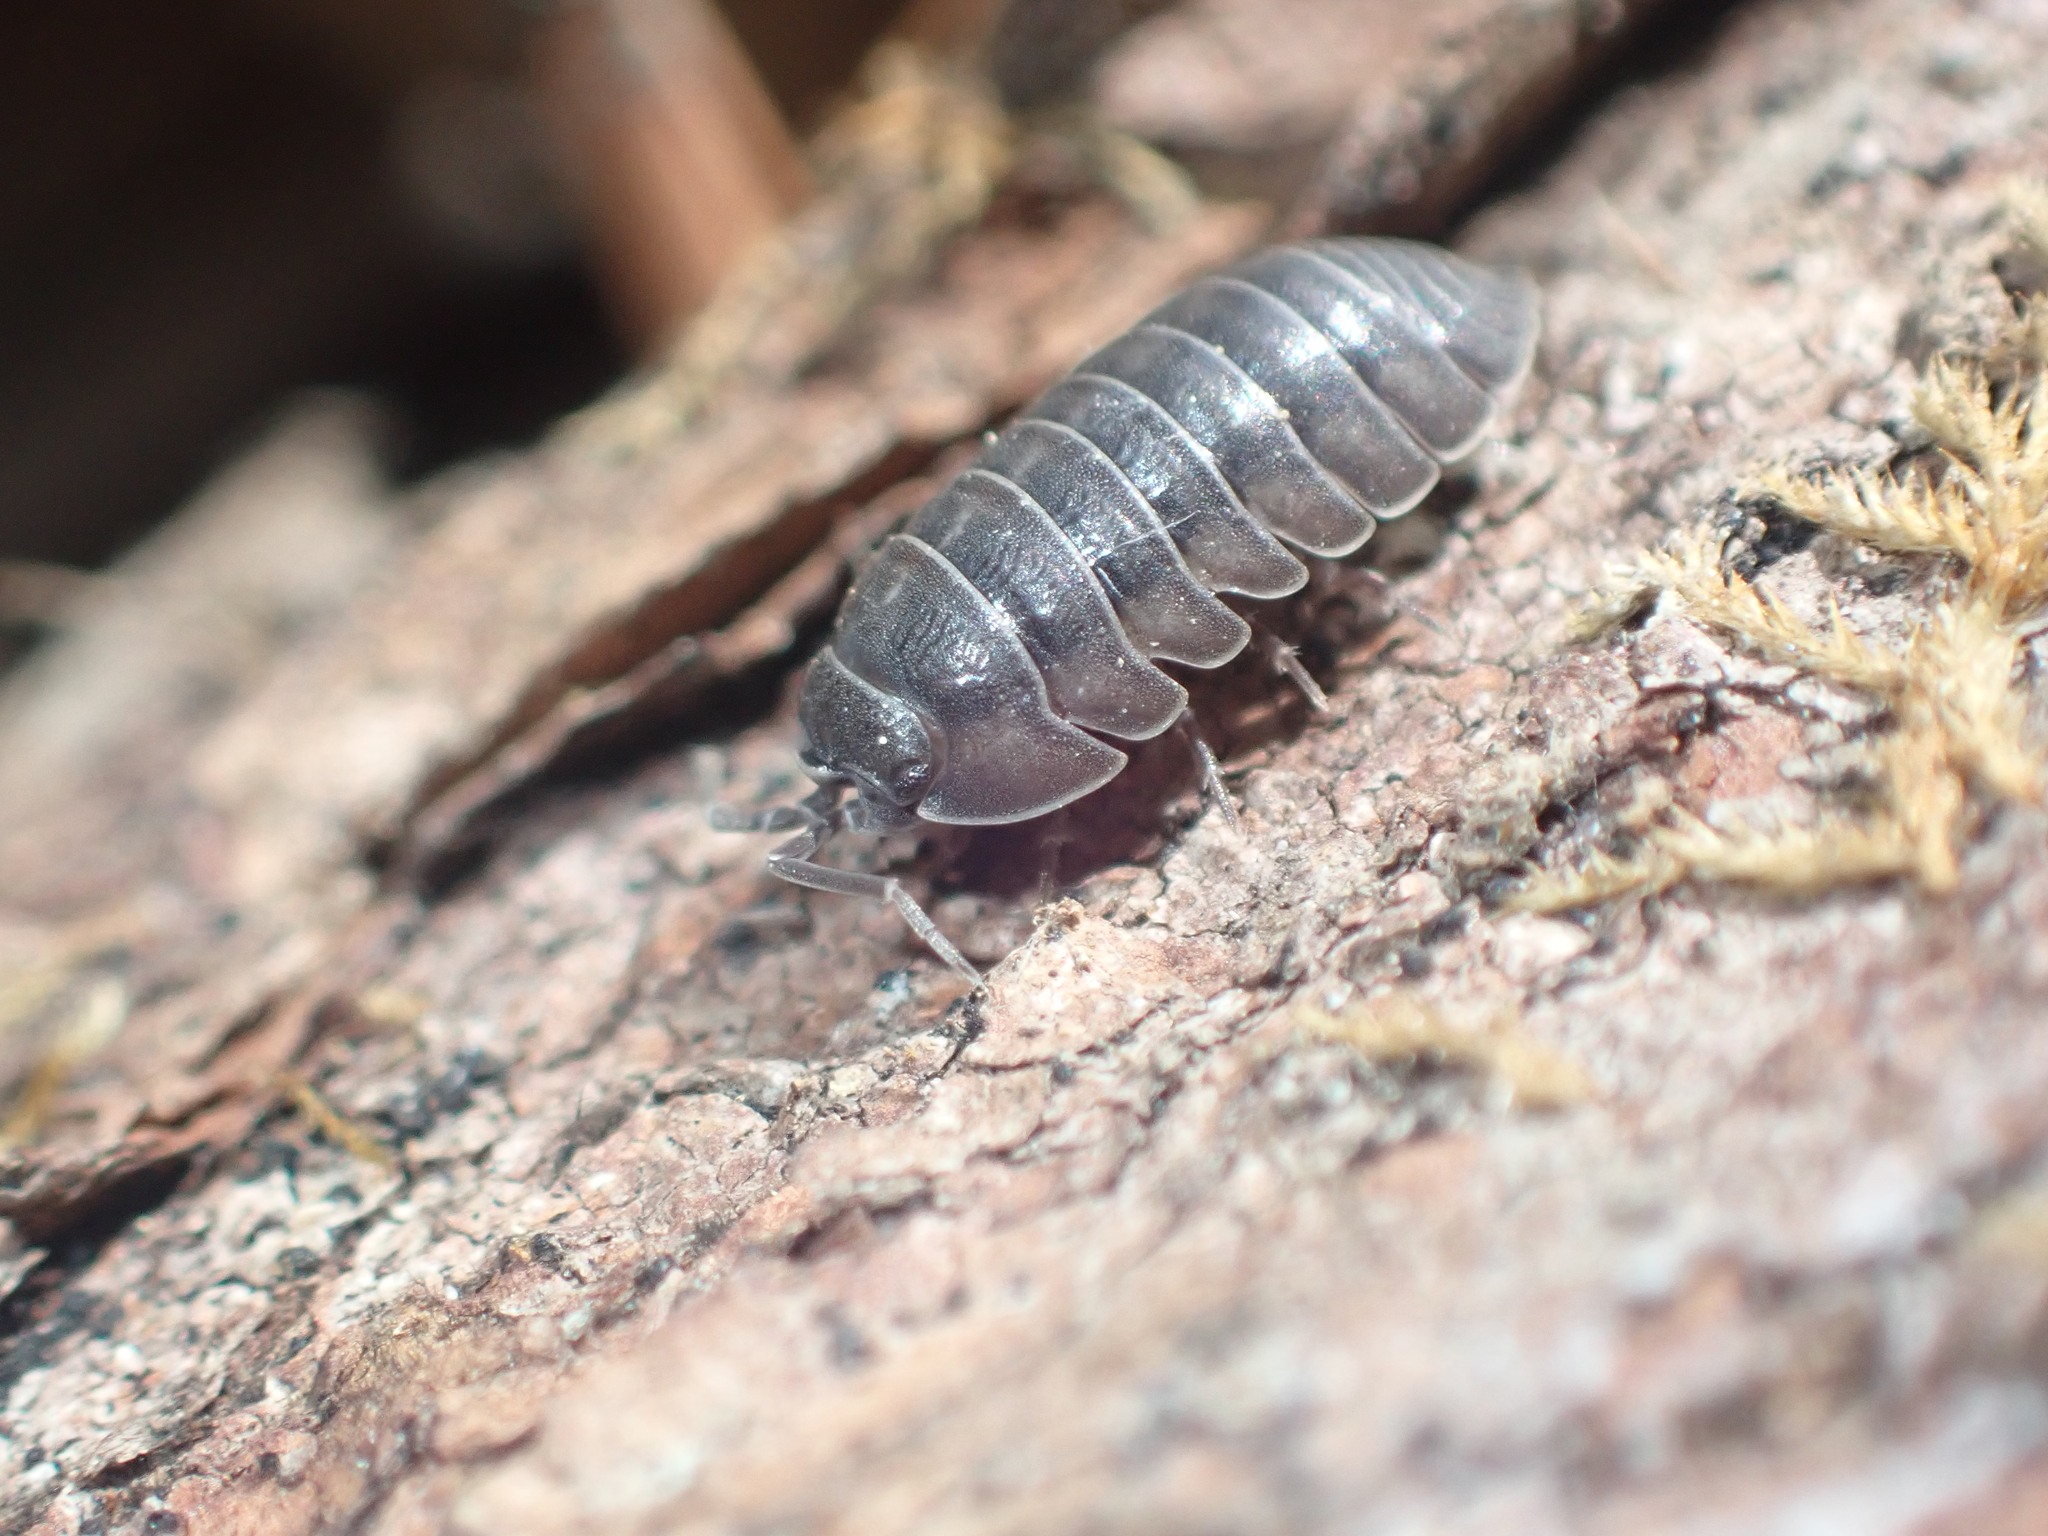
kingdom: Animalia
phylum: Arthropoda
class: Malacostraca
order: Isopoda
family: Armadillidiidae
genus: Armadillidium
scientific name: Armadillidium nasatum
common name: Isopod
